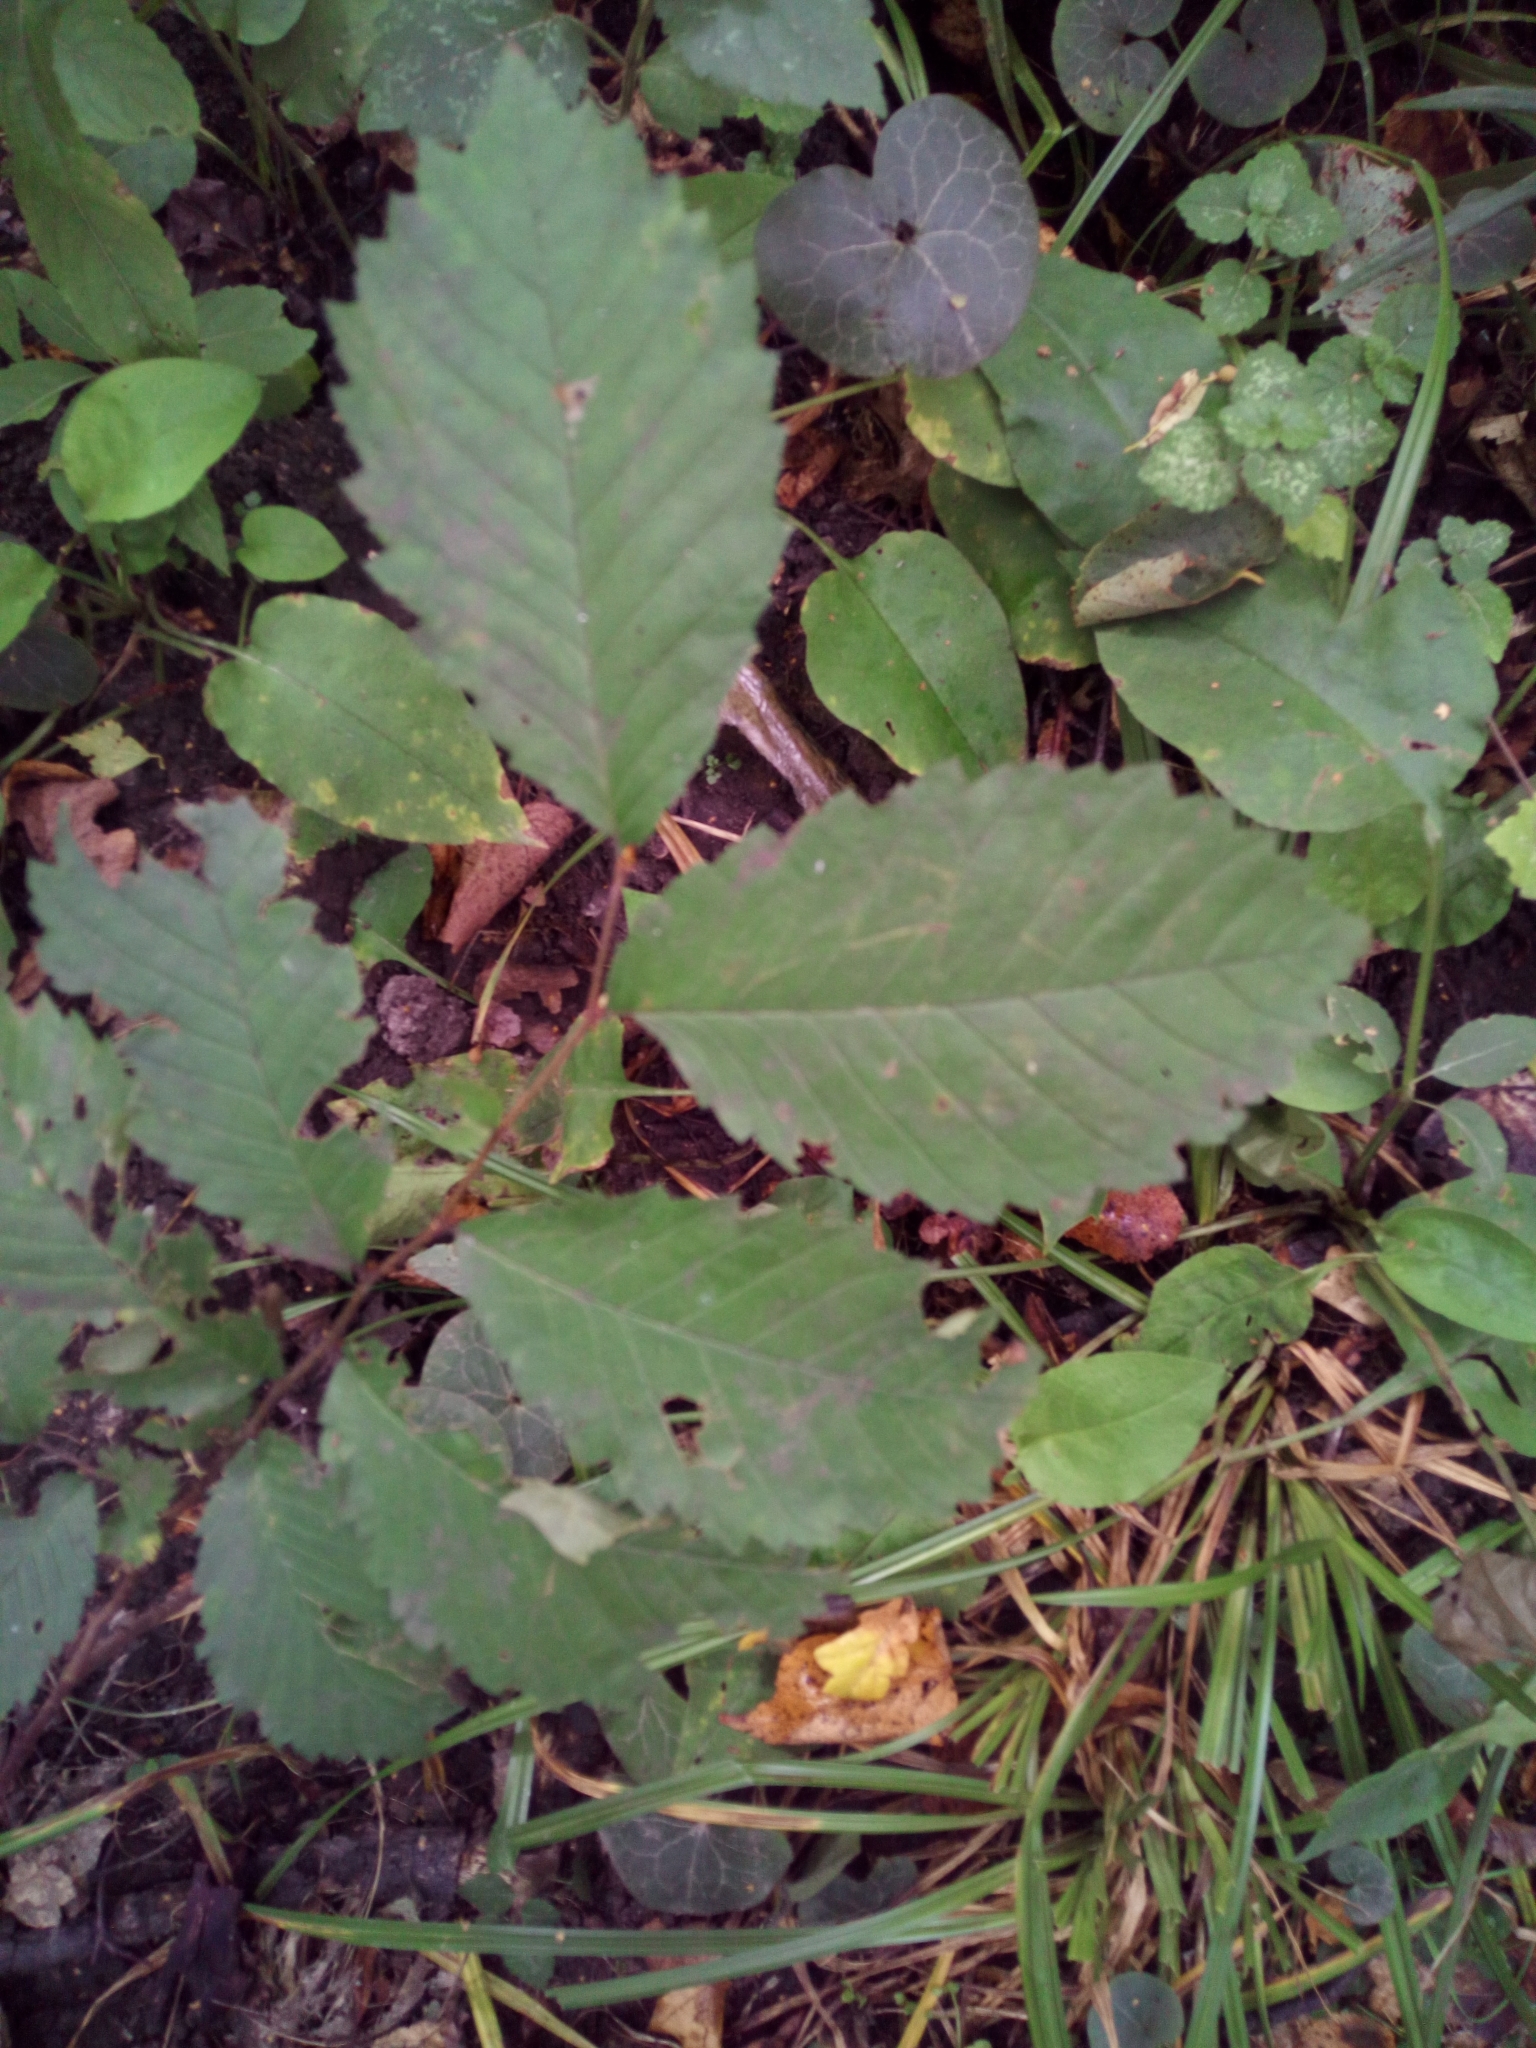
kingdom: Plantae
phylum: Tracheophyta
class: Magnoliopsida
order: Rosales
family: Ulmaceae
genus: Ulmus
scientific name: Ulmus glabra
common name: Wych elm
